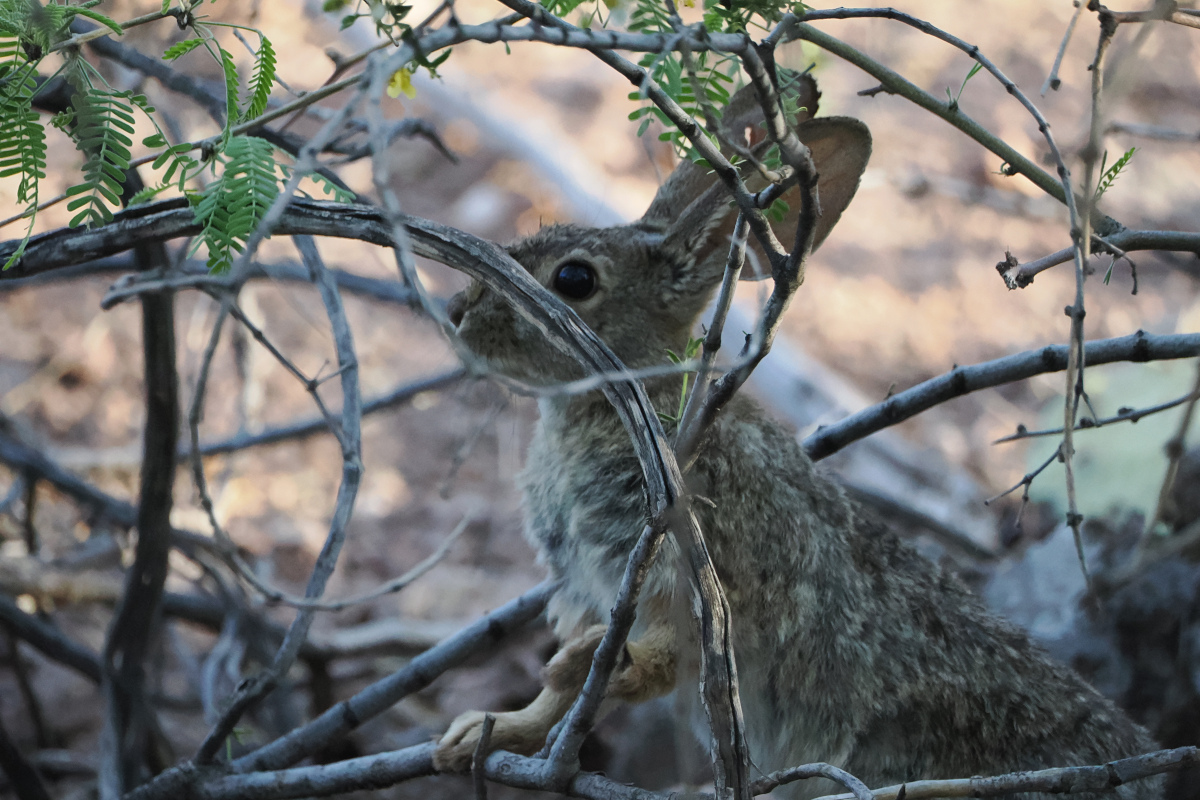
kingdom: Animalia
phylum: Chordata
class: Mammalia
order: Lagomorpha
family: Leporidae
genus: Sylvilagus
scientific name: Sylvilagus audubonii
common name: Desert cottontail
